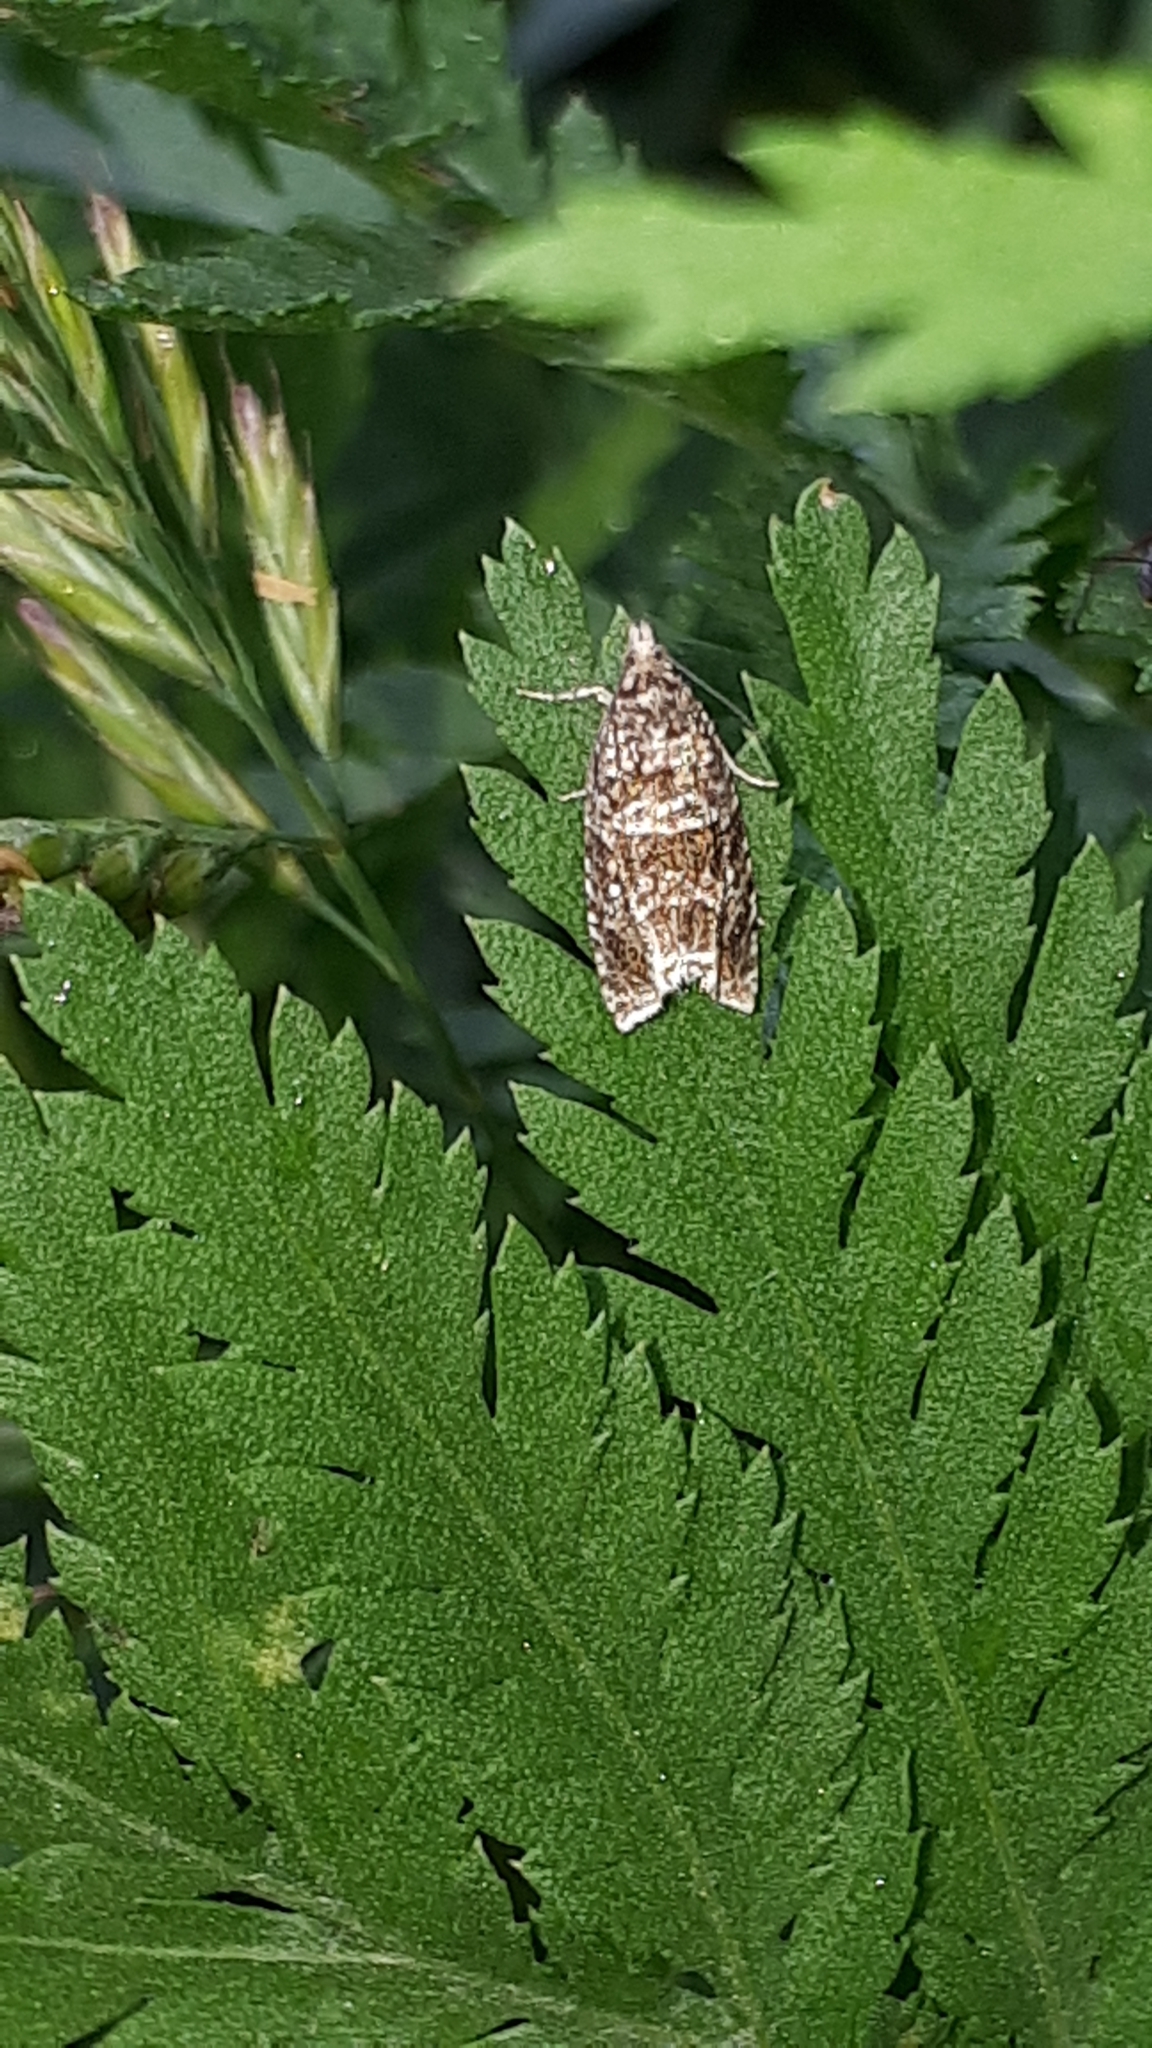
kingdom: Animalia
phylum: Arthropoda
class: Insecta
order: Lepidoptera
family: Tortricidae
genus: Syricoris
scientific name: Syricoris lacunana
